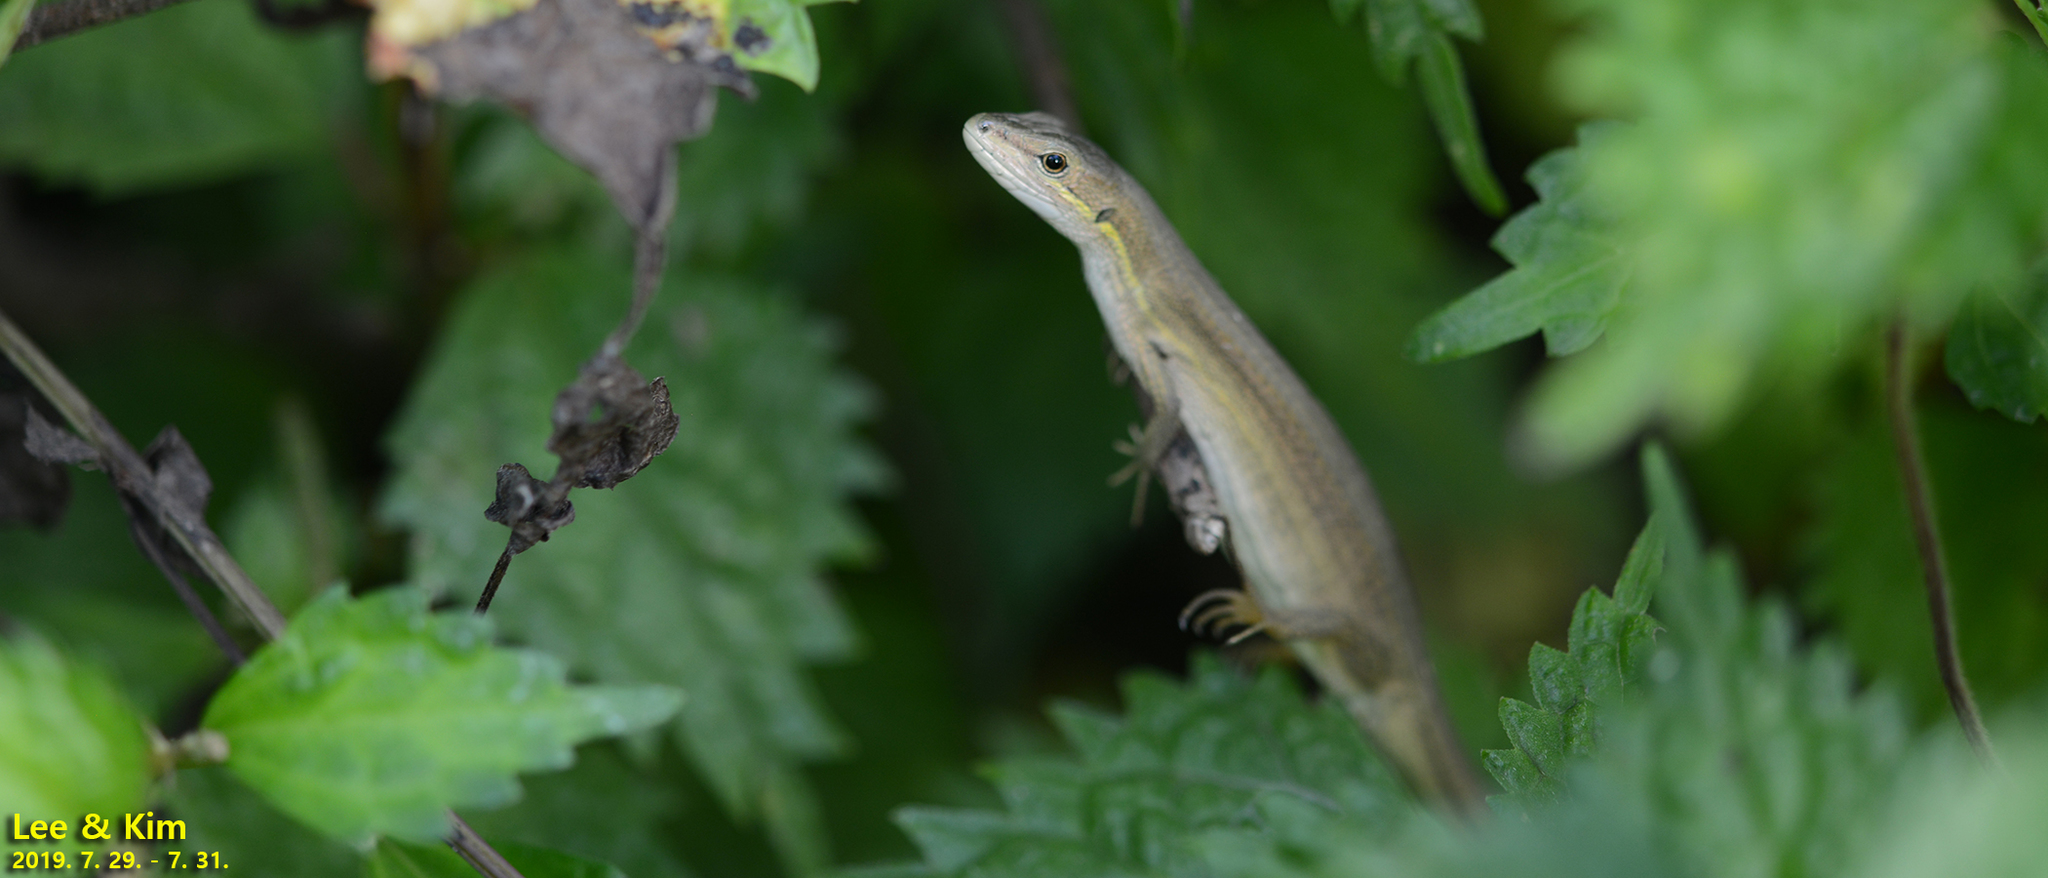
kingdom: Animalia
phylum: Chordata
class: Squamata
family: Lacertidae
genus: Takydromus
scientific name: Takydromus wolteri
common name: Mountain grass lizard
